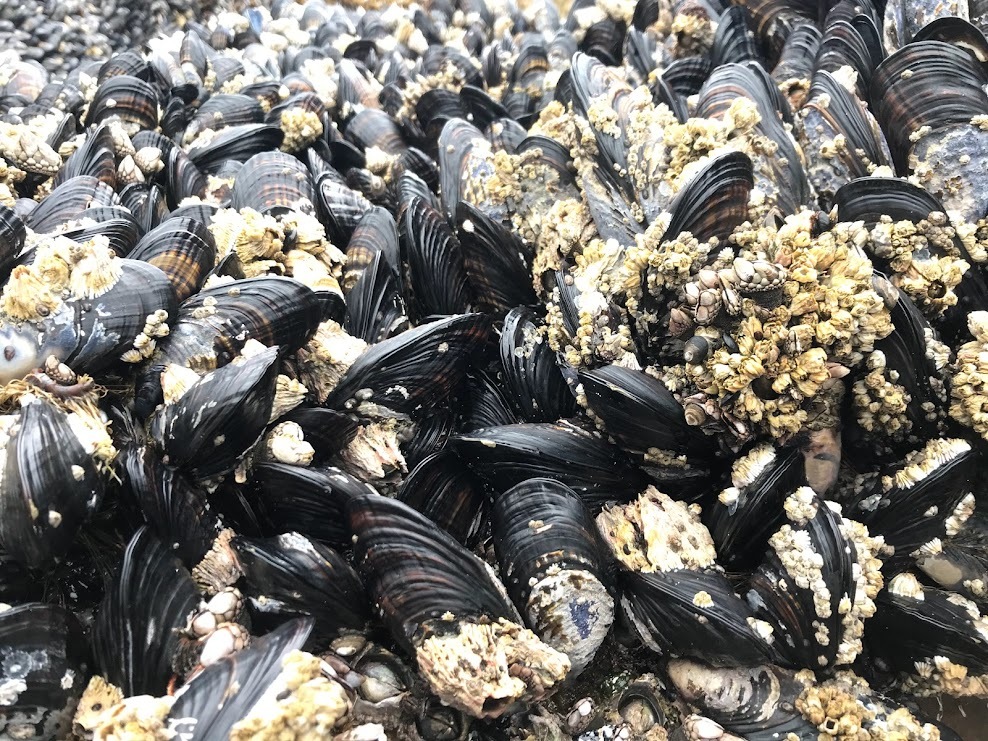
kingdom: Animalia
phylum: Mollusca
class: Bivalvia
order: Mytilida
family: Mytilidae
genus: Mytilus
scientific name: Mytilus californianus
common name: California mussel
